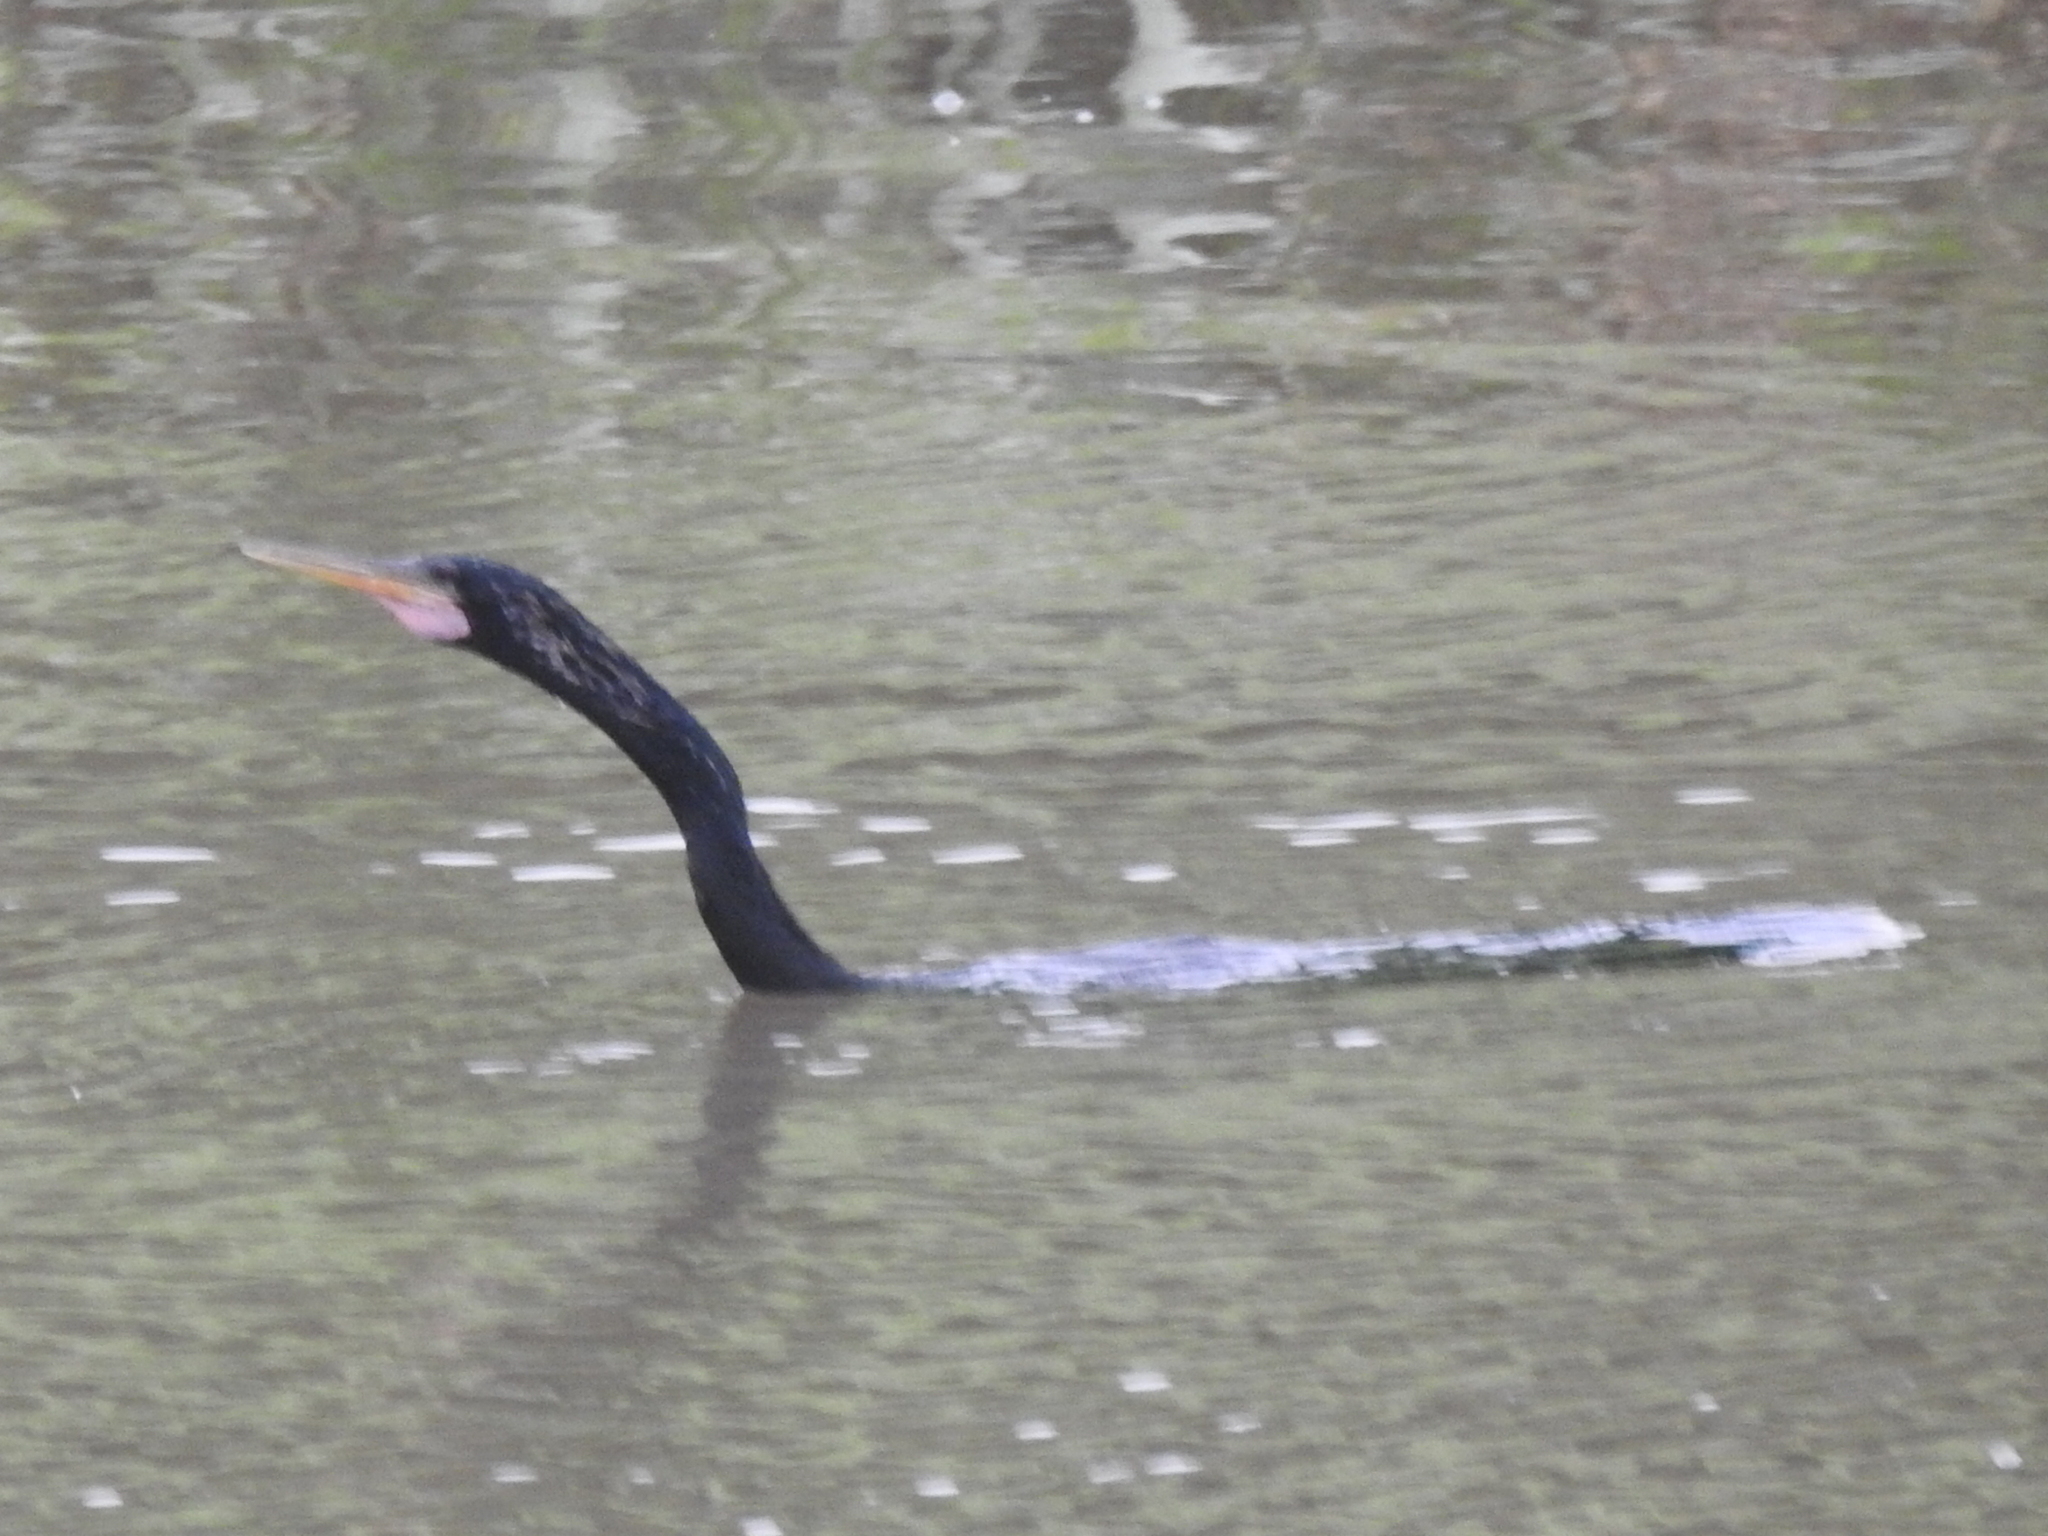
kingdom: Animalia
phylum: Chordata
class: Aves
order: Suliformes
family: Anhingidae
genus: Anhinga
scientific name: Anhinga anhinga
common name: Anhinga
